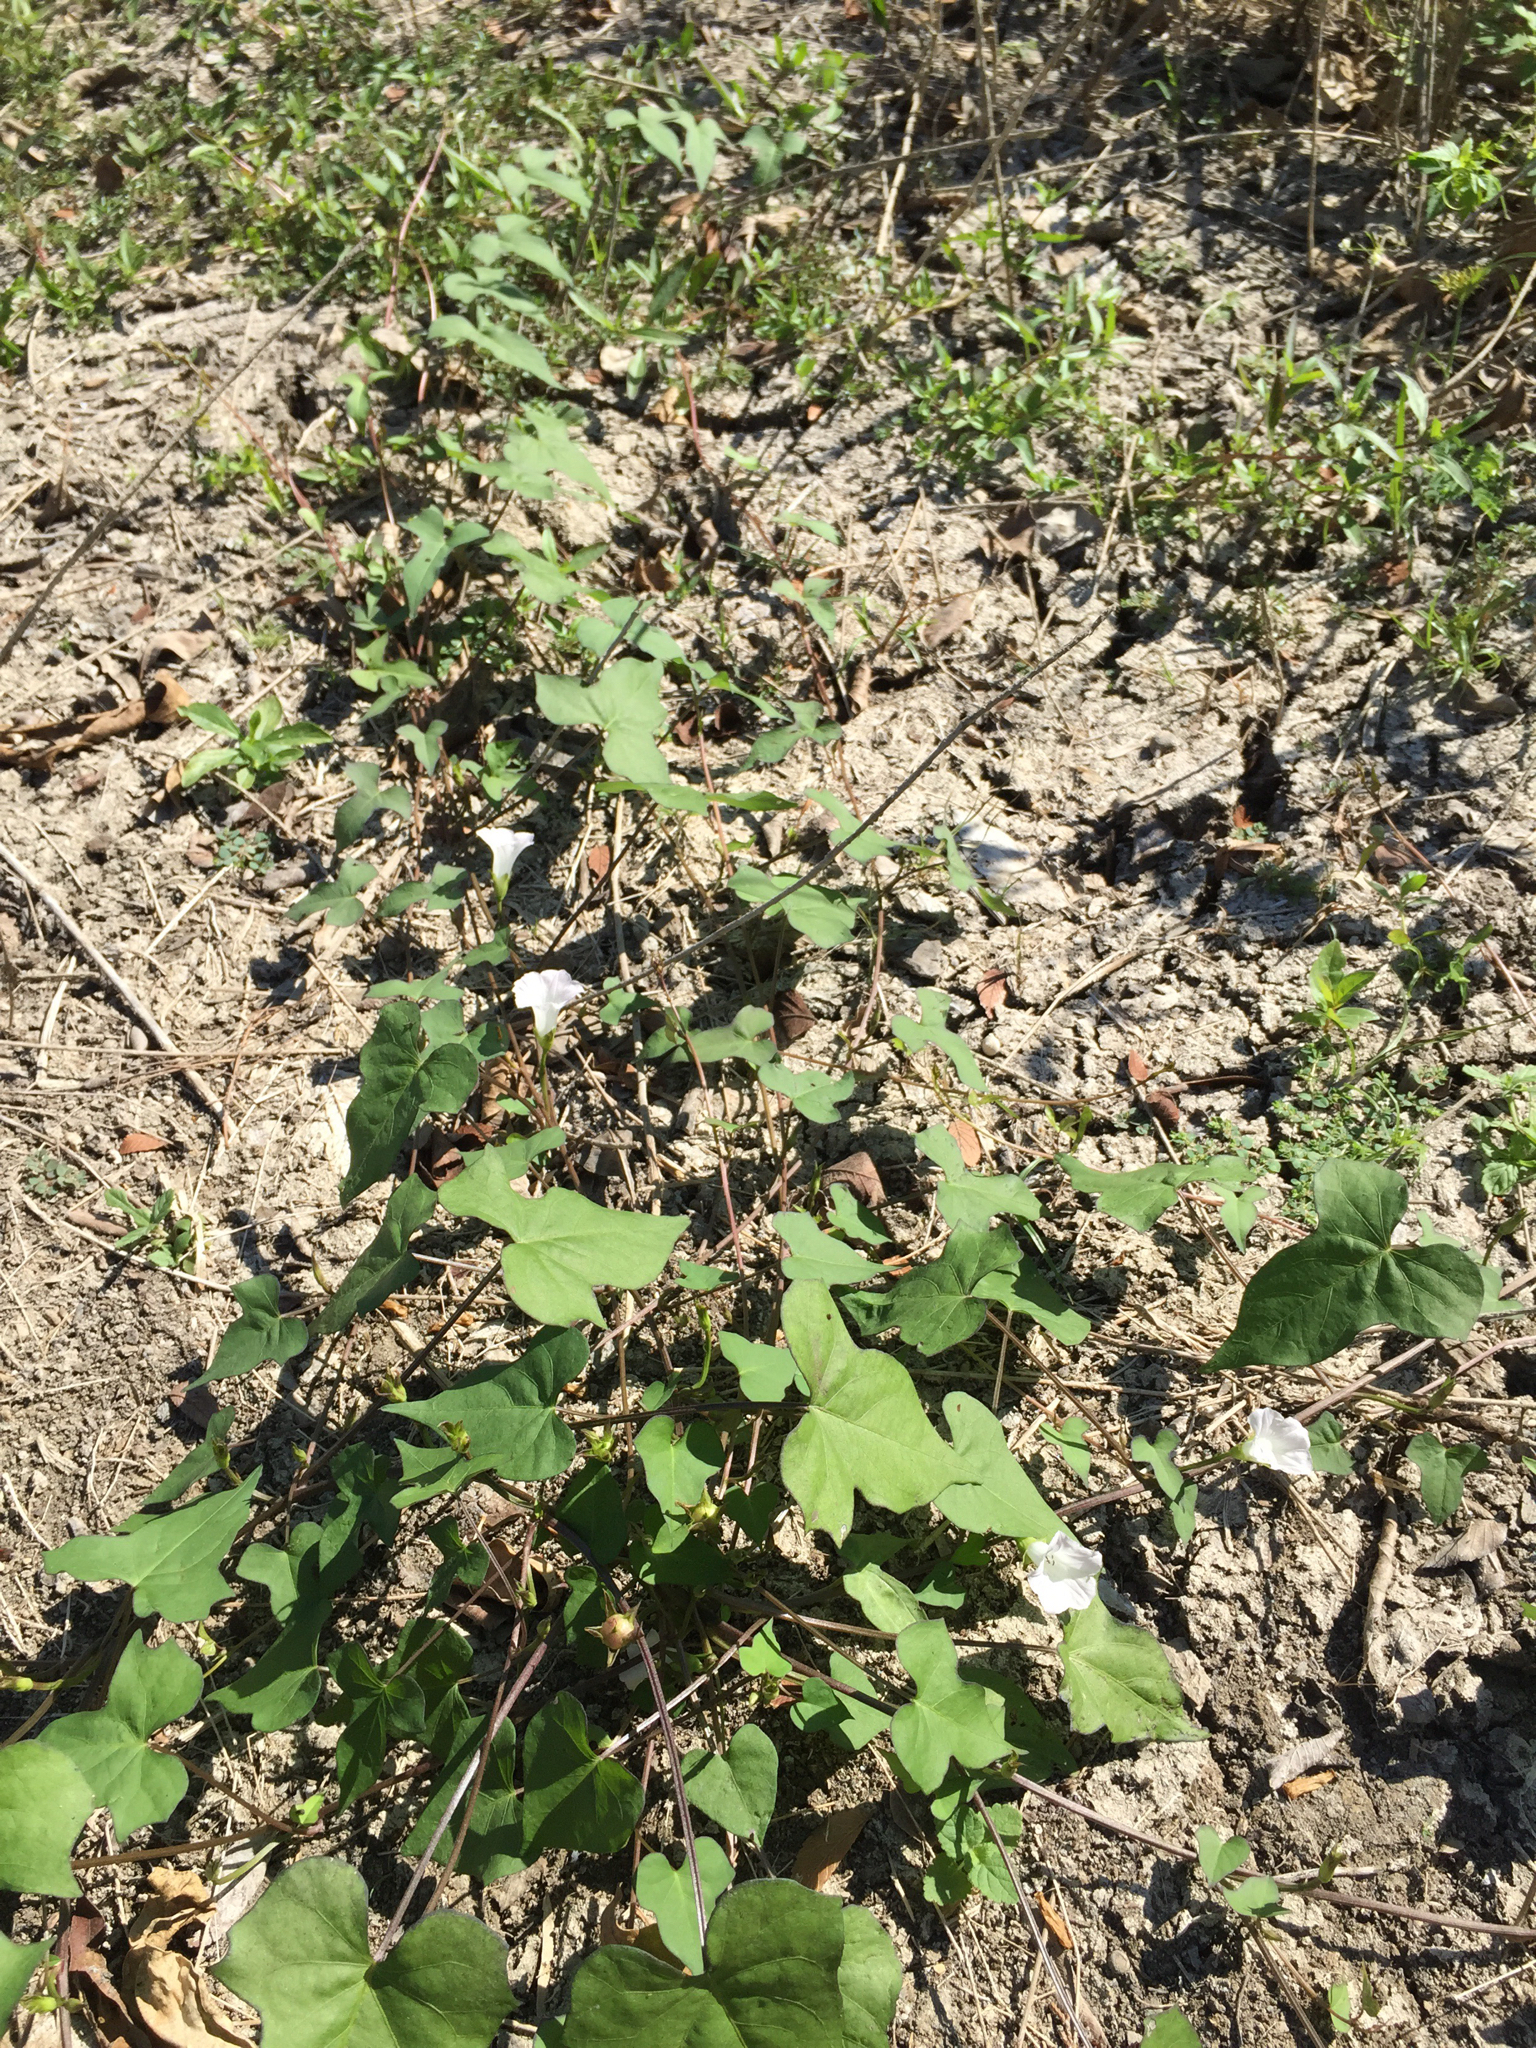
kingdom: Plantae
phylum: Tracheophyta
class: Magnoliopsida
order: Solanales
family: Convolvulaceae
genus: Ipomoea
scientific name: Ipomoea lacunosa
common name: White morning-glory
